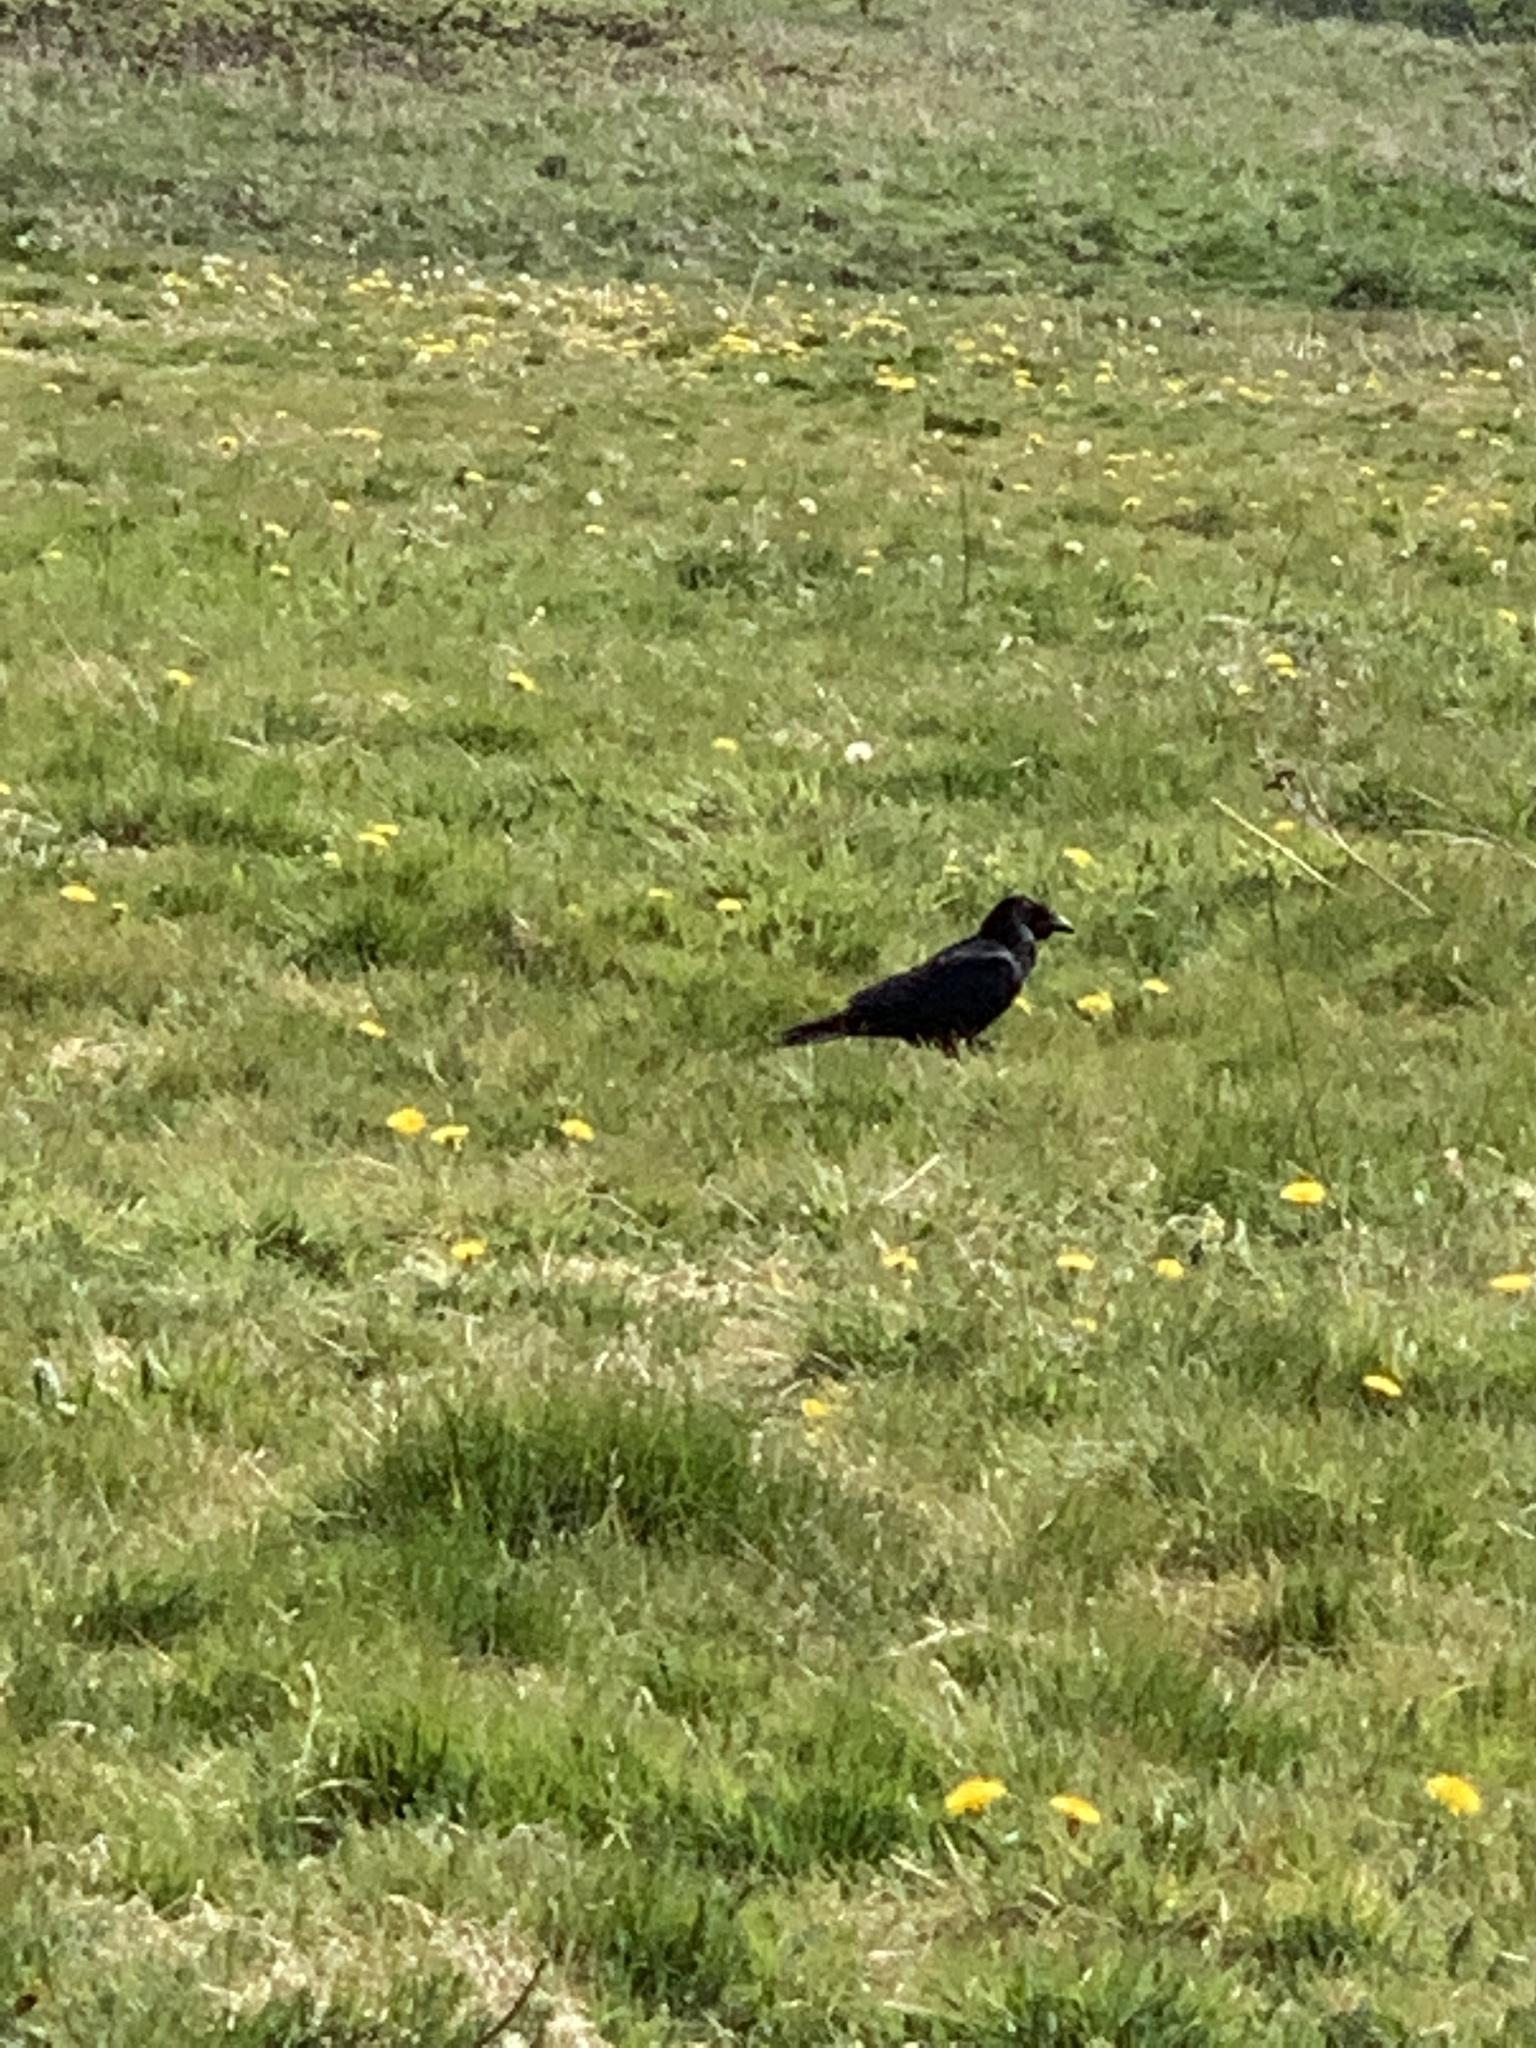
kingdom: Animalia
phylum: Chordata
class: Aves
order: Passeriformes
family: Corvidae
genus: Corvus
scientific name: Corvus corone
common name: Carrion crow
